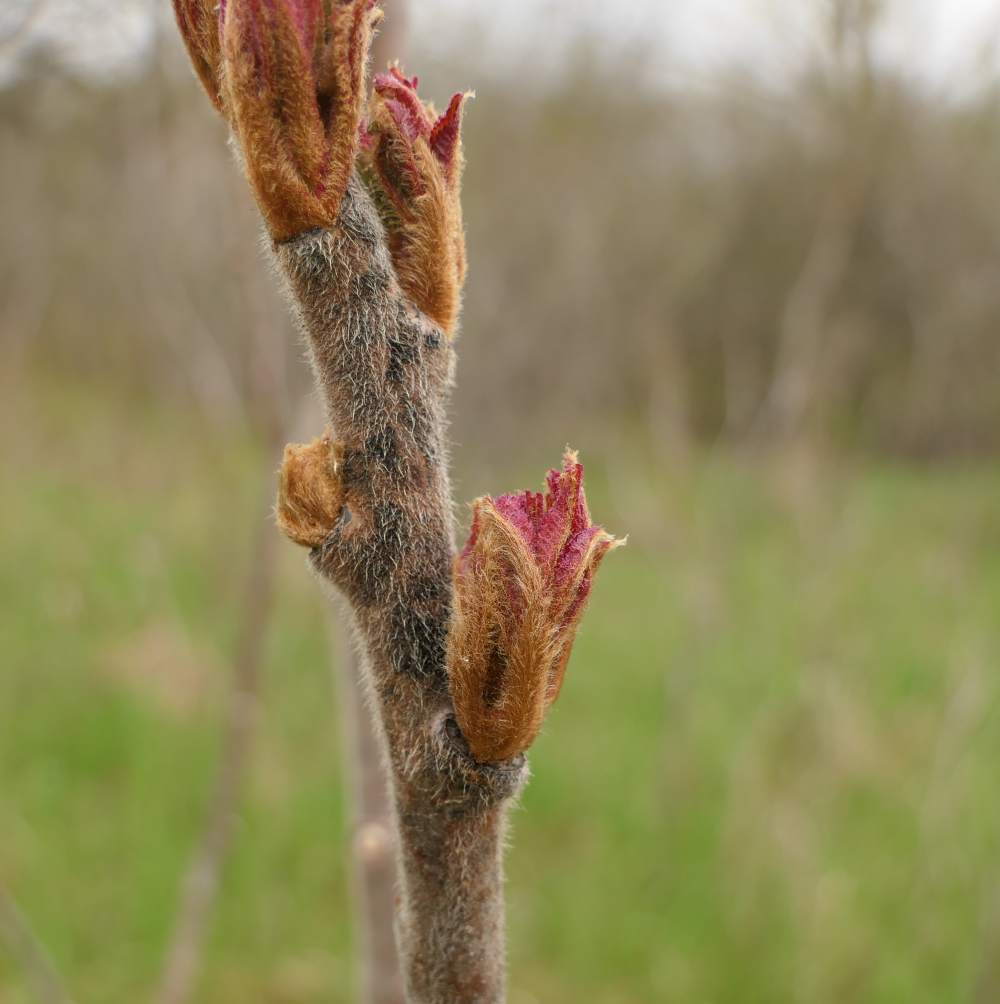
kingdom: Plantae
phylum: Tracheophyta
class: Magnoliopsida
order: Sapindales
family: Anacardiaceae
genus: Rhus
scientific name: Rhus typhina
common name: Staghorn sumac
